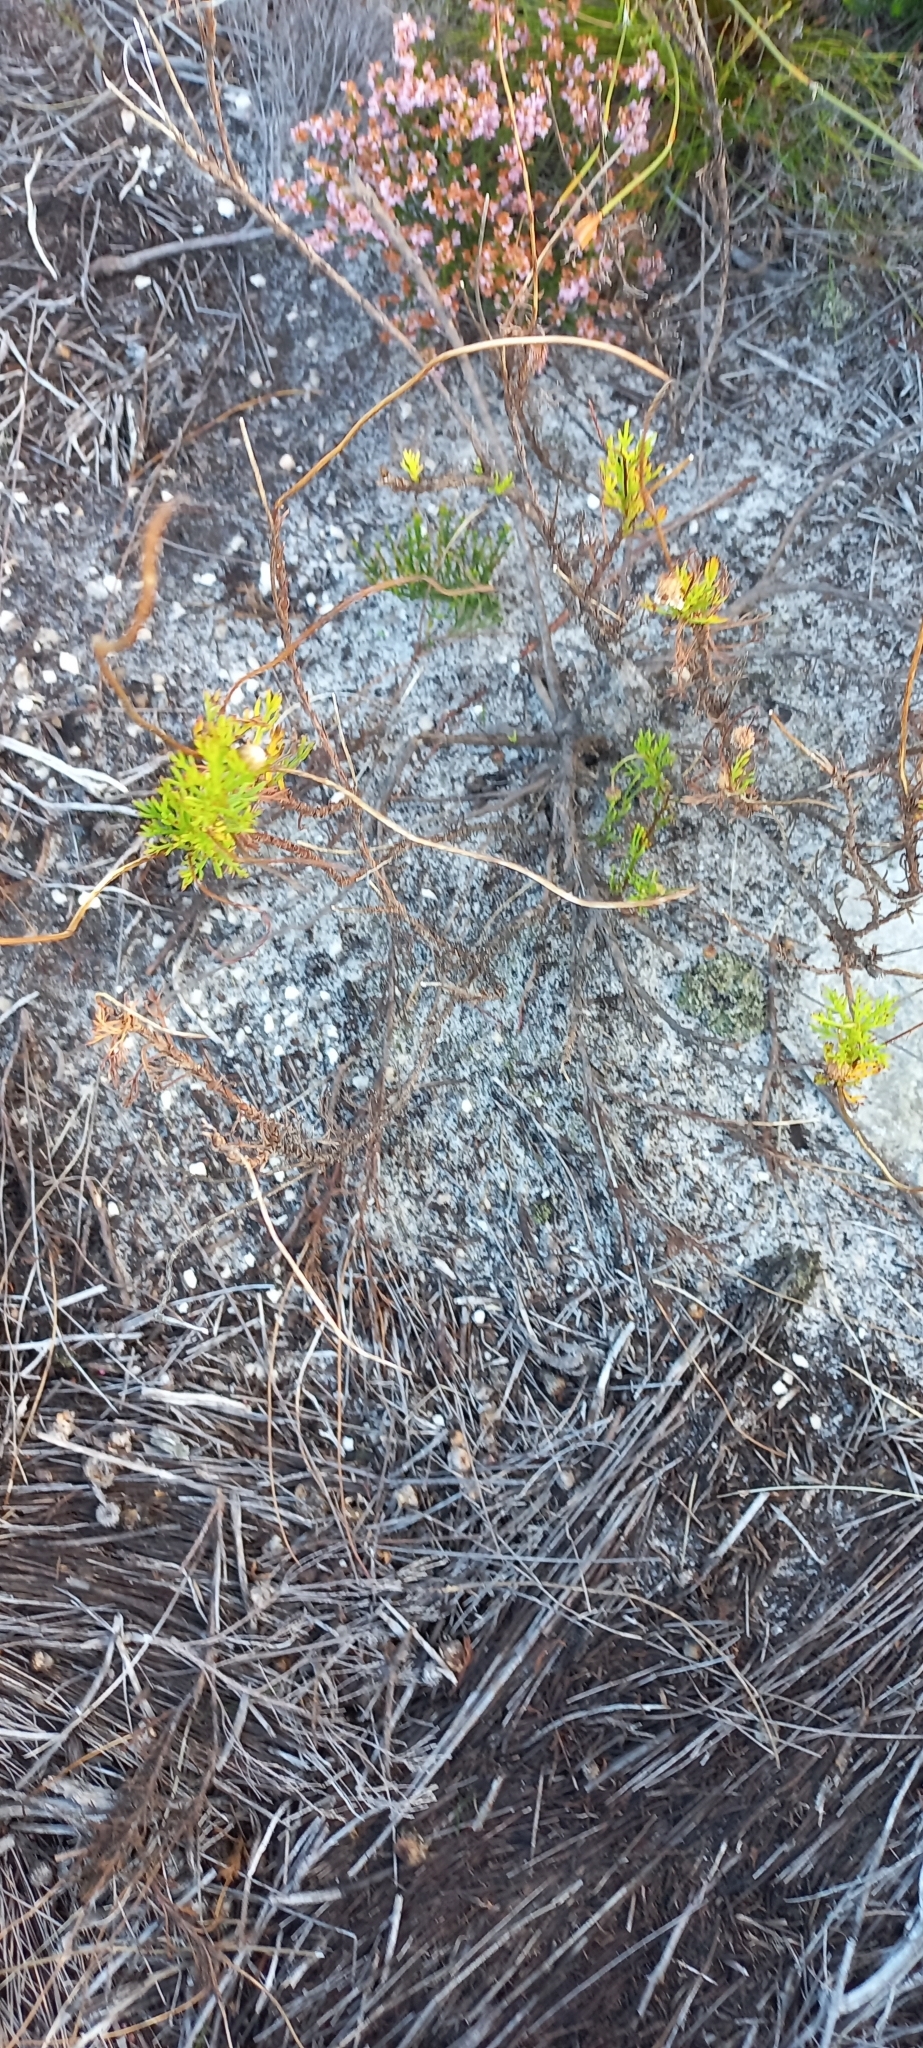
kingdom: Plantae
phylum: Tracheophyta
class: Magnoliopsida
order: Asterales
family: Asteraceae
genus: Ursinia
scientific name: Ursinia paleacea
